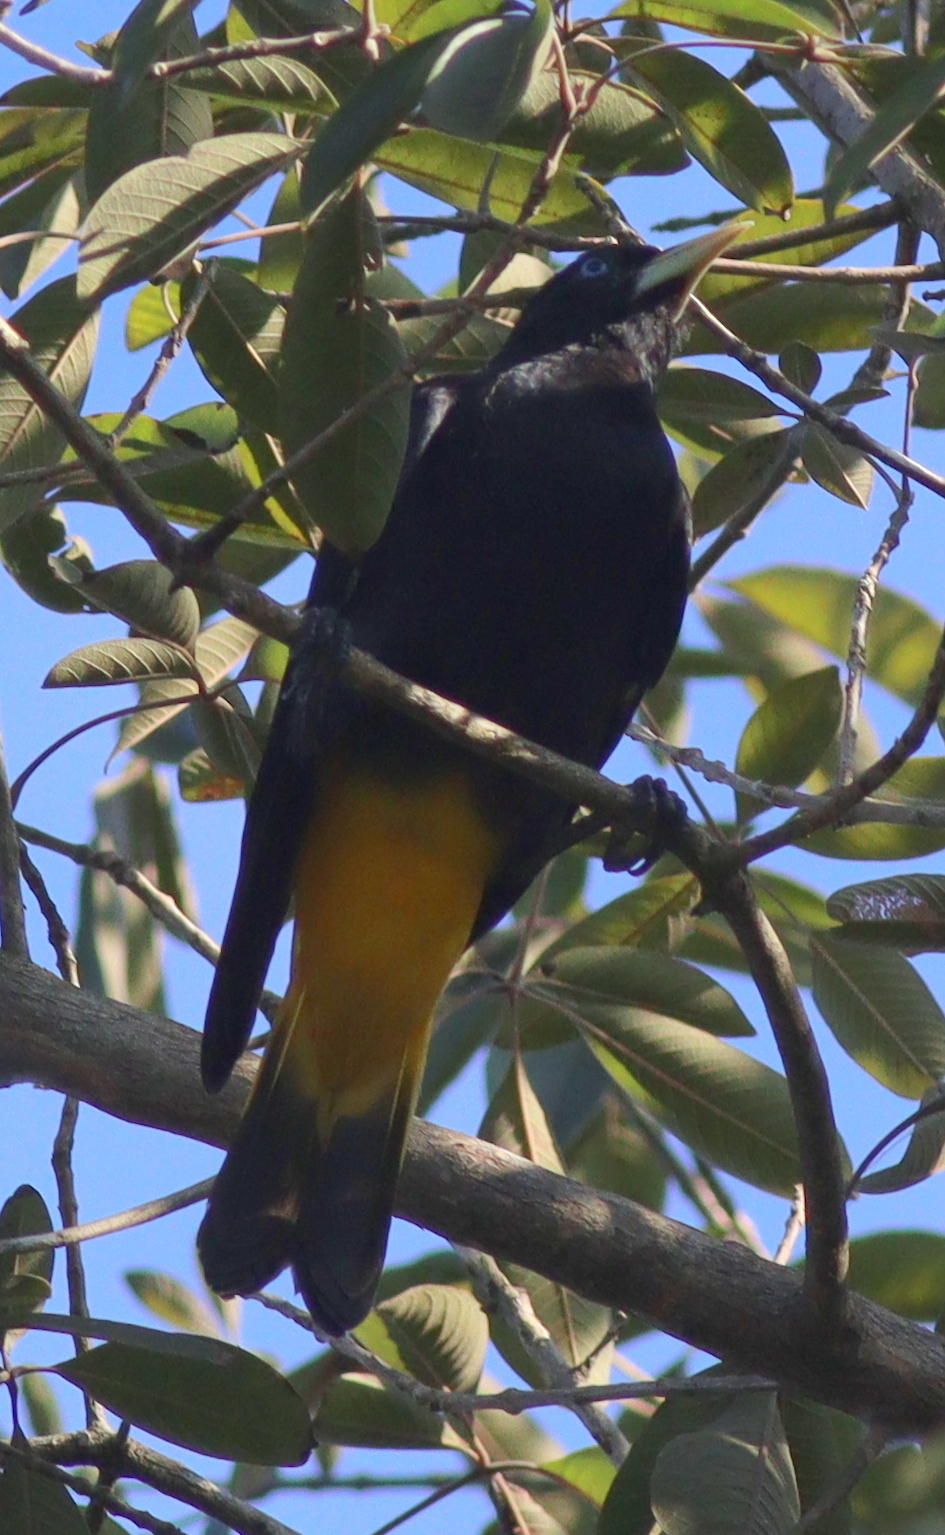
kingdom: Animalia
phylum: Chordata
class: Aves
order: Passeriformes
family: Icteridae
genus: Cacicus
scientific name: Cacicus cela
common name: Yellow-rumped cacique
